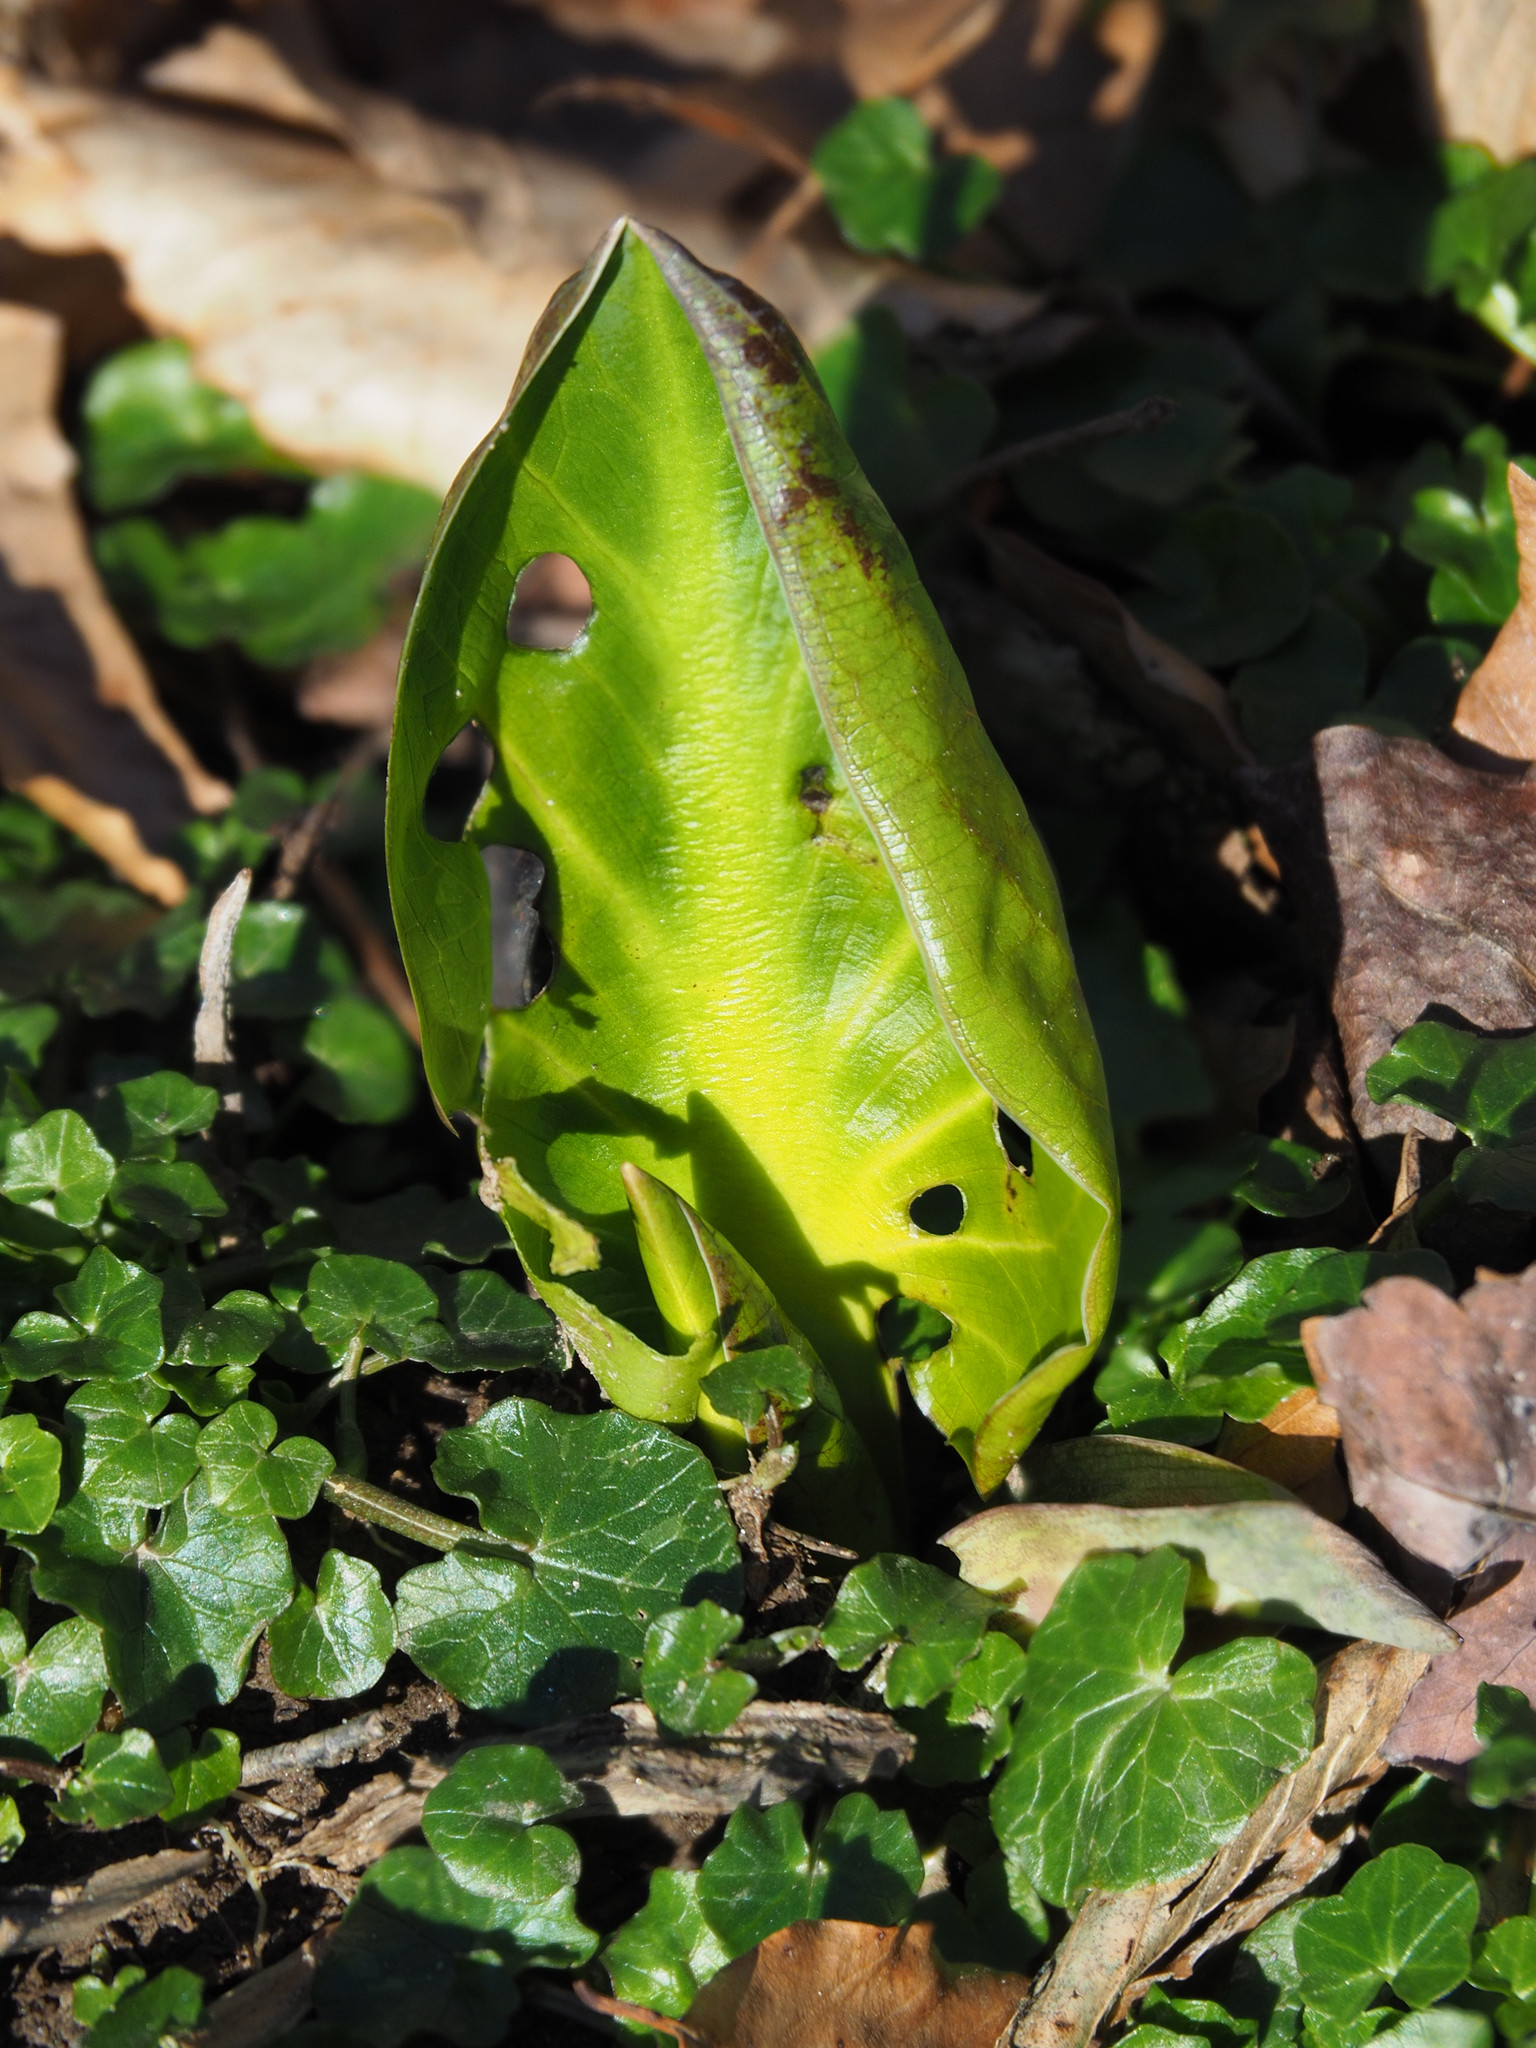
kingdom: Plantae
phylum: Tracheophyta
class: Liliopsida
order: Alismatales
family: Araceae
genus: Symplocarpus
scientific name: Symplocarpus foetidus
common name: Eastern skunk cabbage
